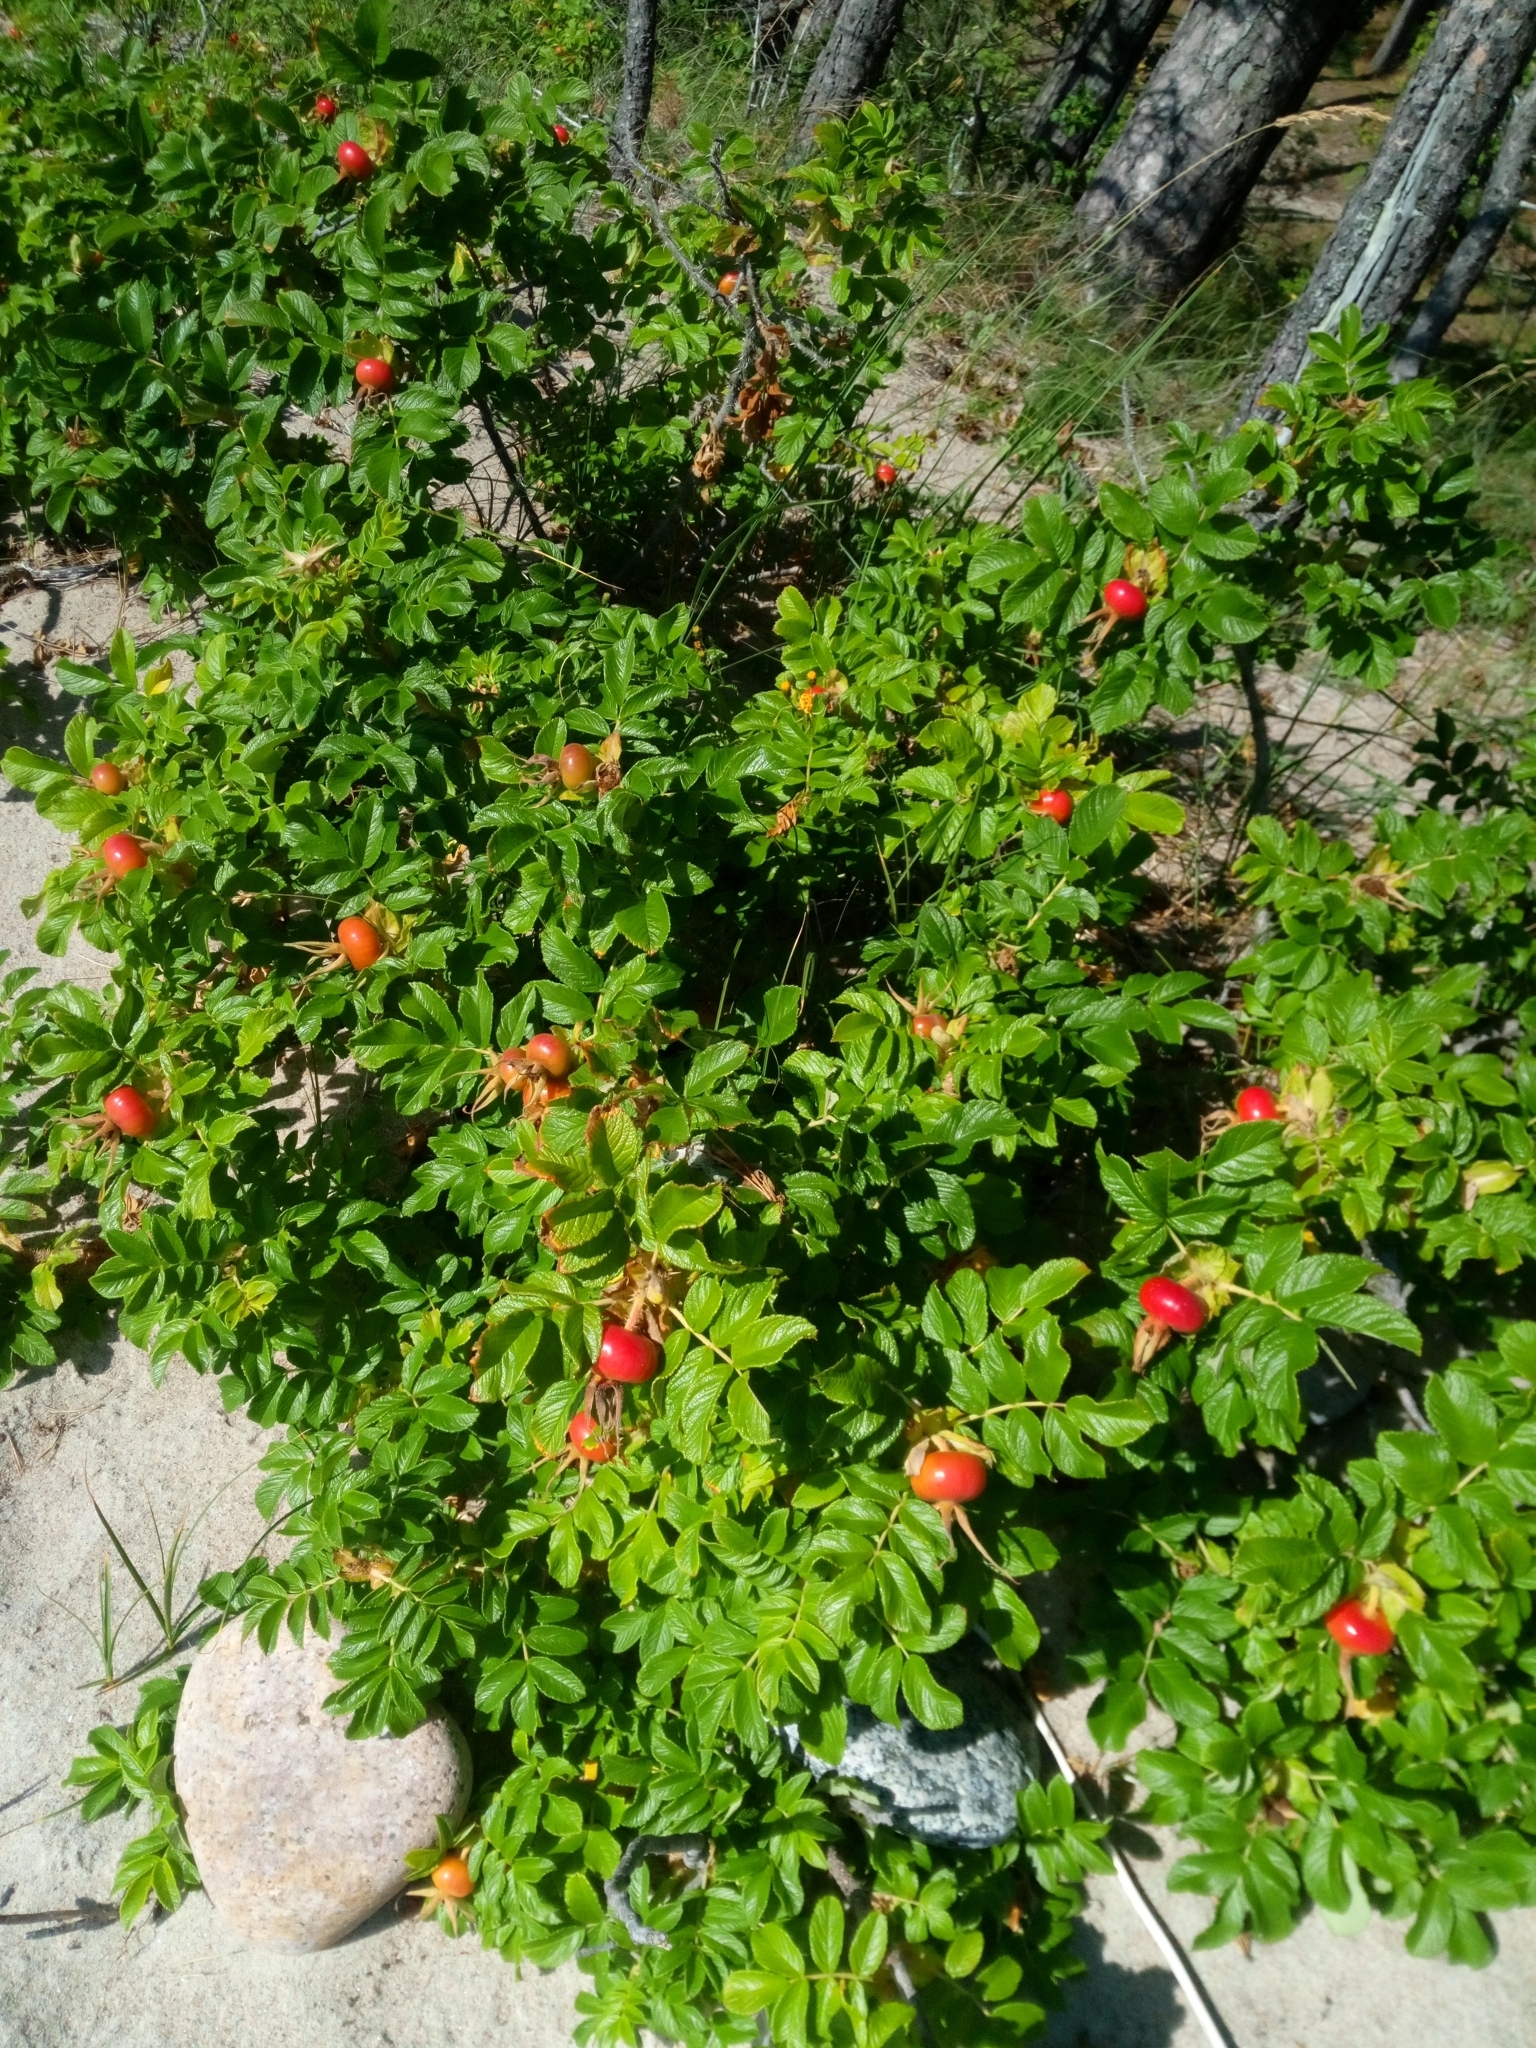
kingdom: Plantae
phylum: Tracheophyta
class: Magnoliopsida
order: Rosales
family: Rosaceae
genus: Rosa
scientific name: Rosa rugosa
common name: Japanese rose
